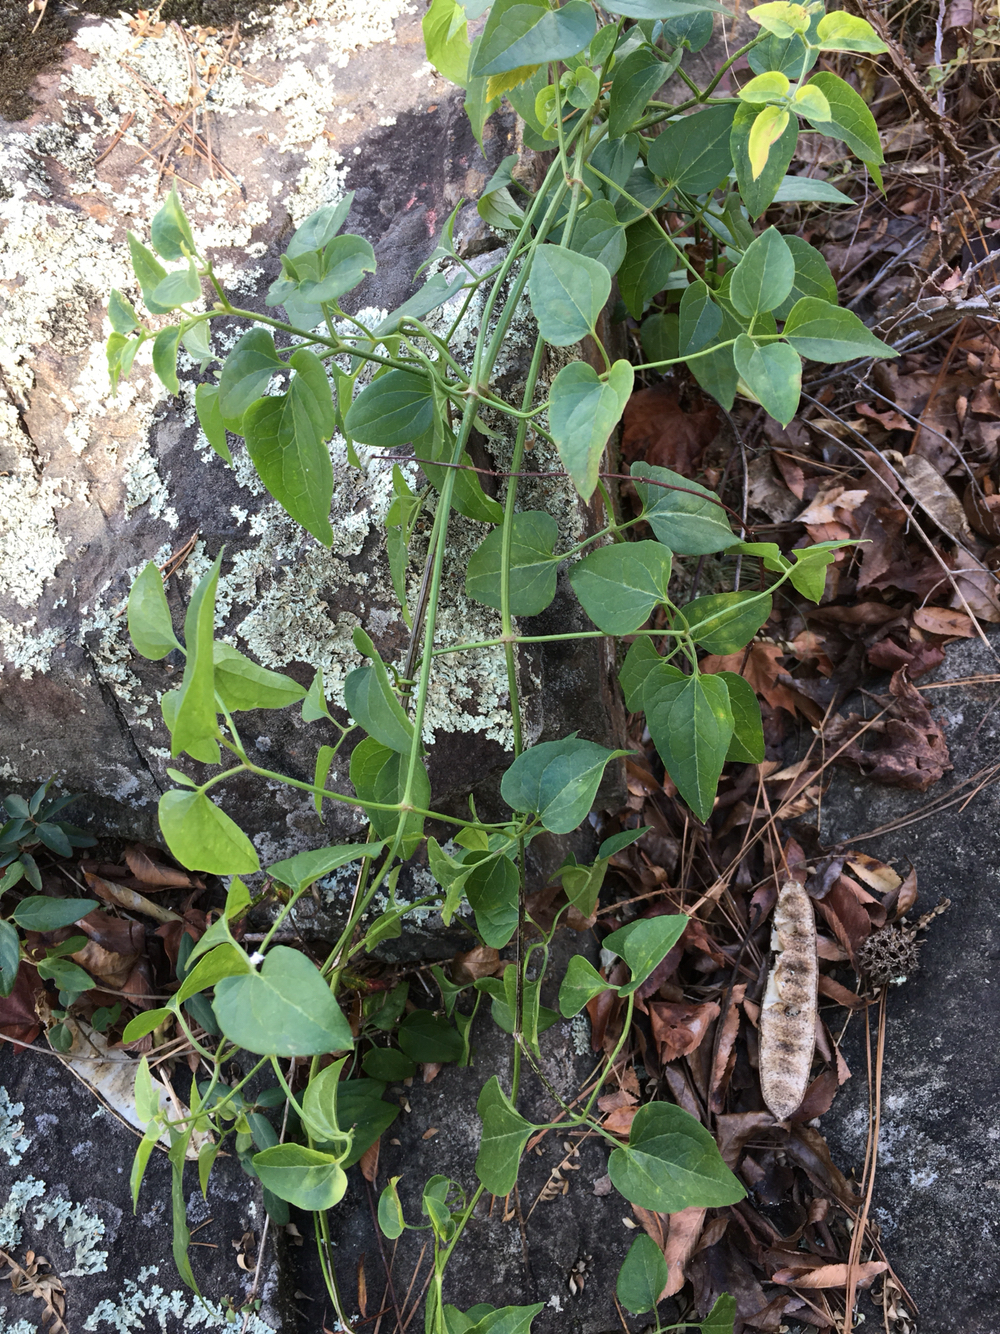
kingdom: Plantae
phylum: Tracheophyta
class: Magnoliopsida
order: Ranunculales
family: Ranunculaceae
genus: Clematis
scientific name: Clematis terniflora
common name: Sweet autumn clematis
